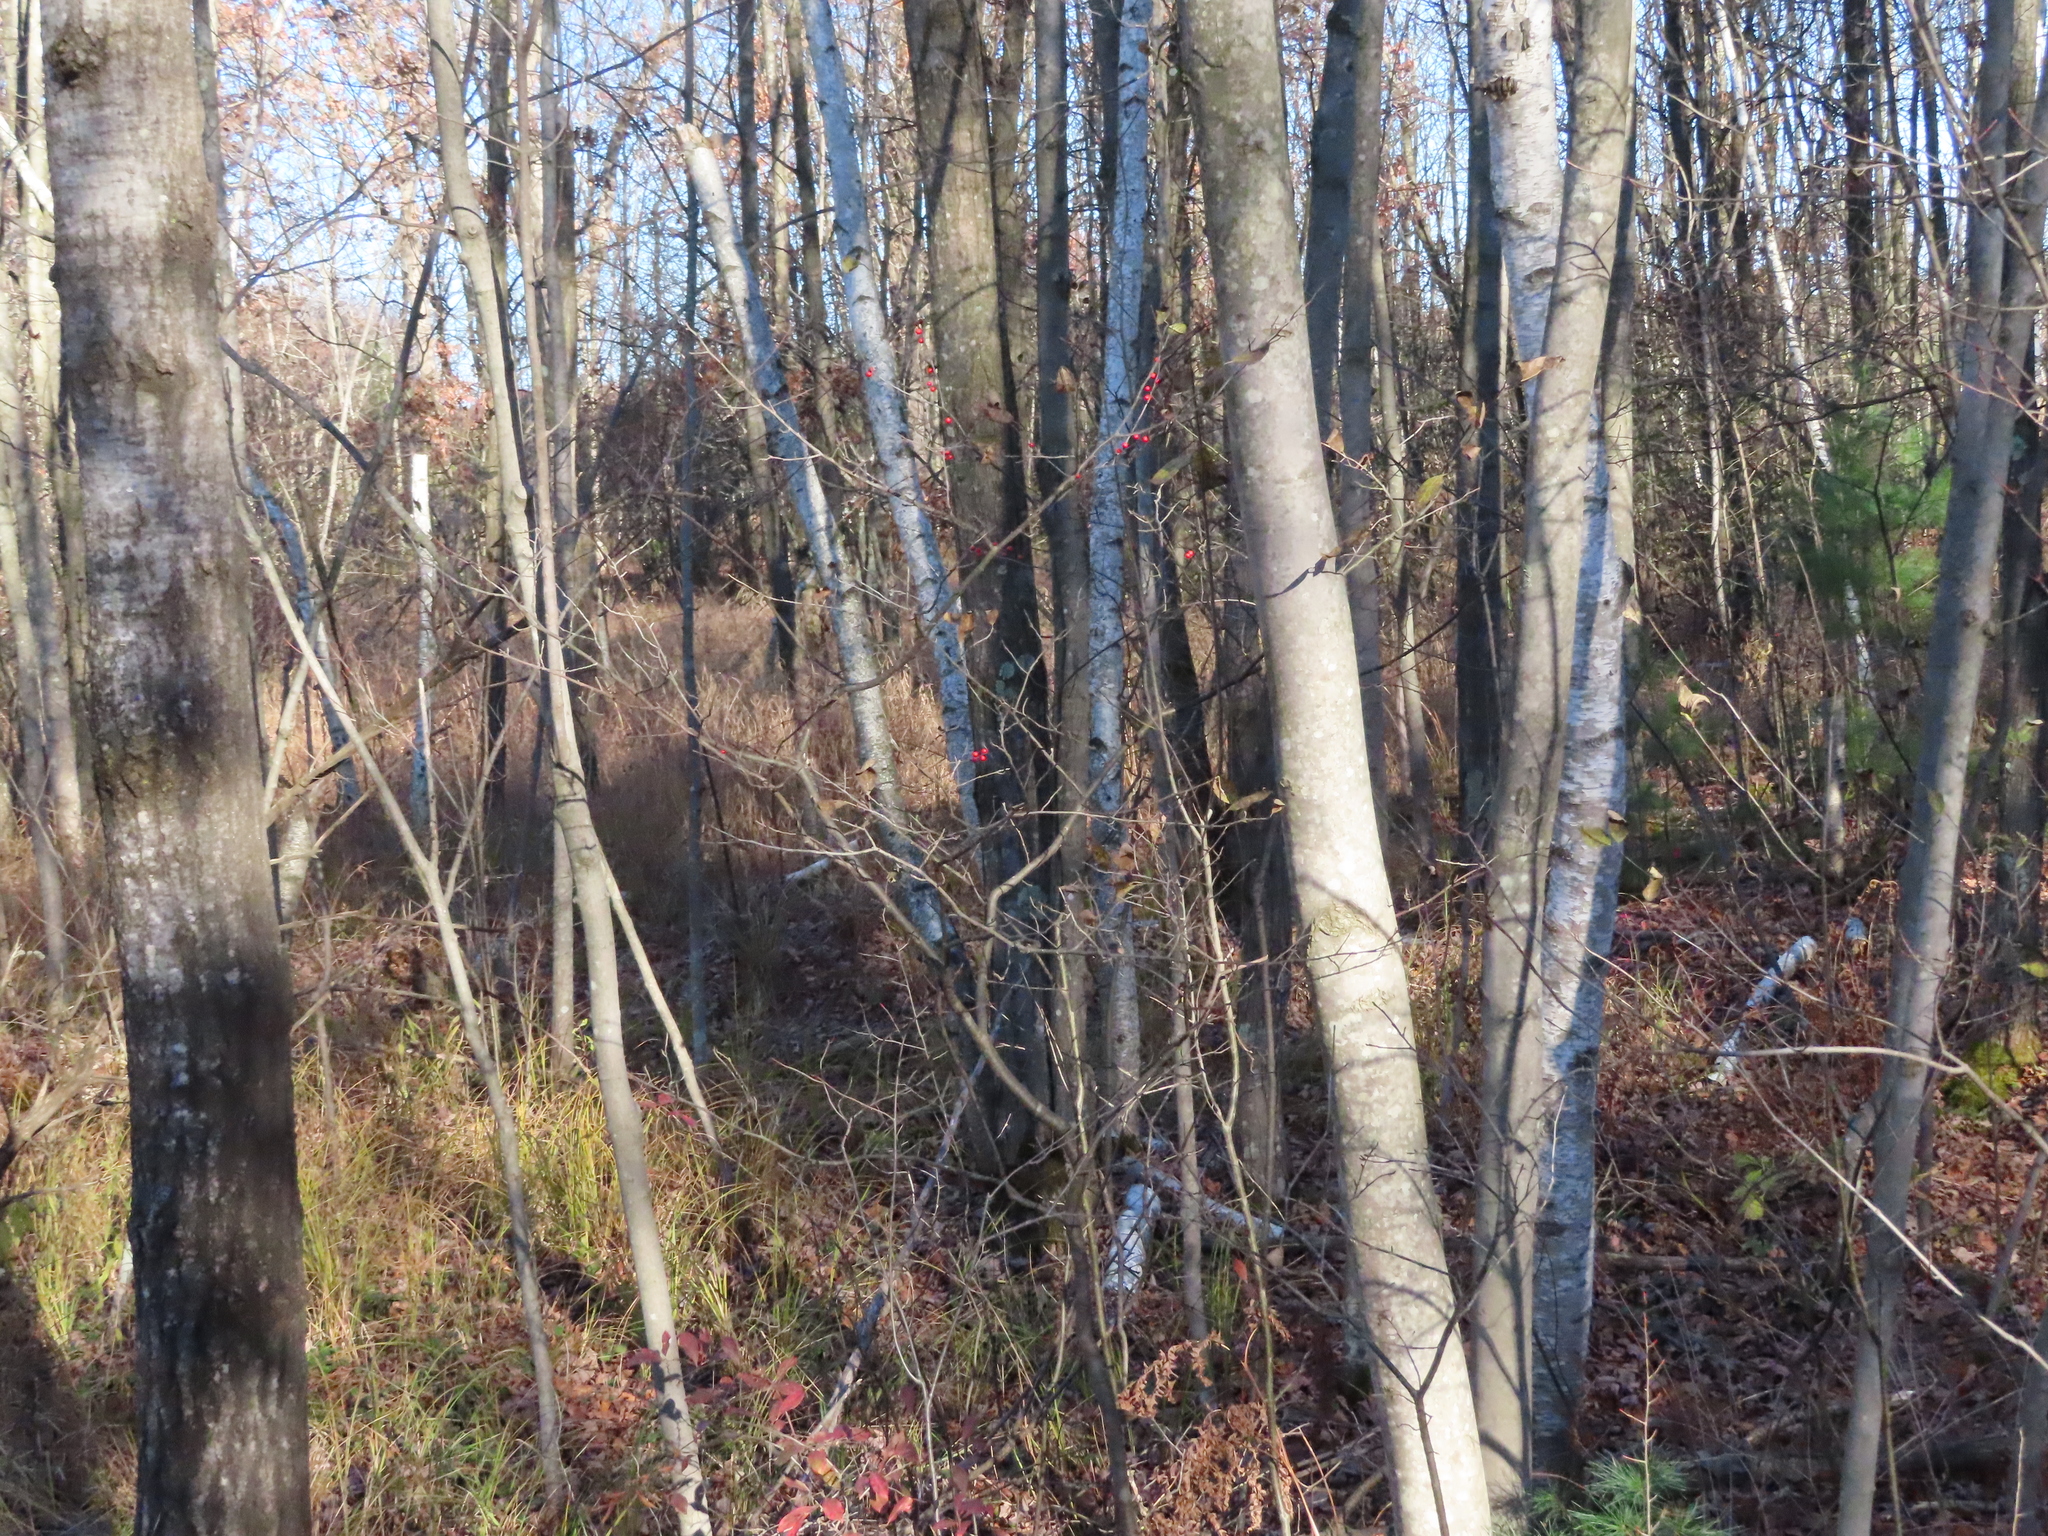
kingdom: Plantae
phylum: Tracheophyta
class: Magnoliopsida
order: Aquifoliales
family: Aquifoliaceae
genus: Ilex
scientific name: Ilex verticillata
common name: Virginia winterberry
